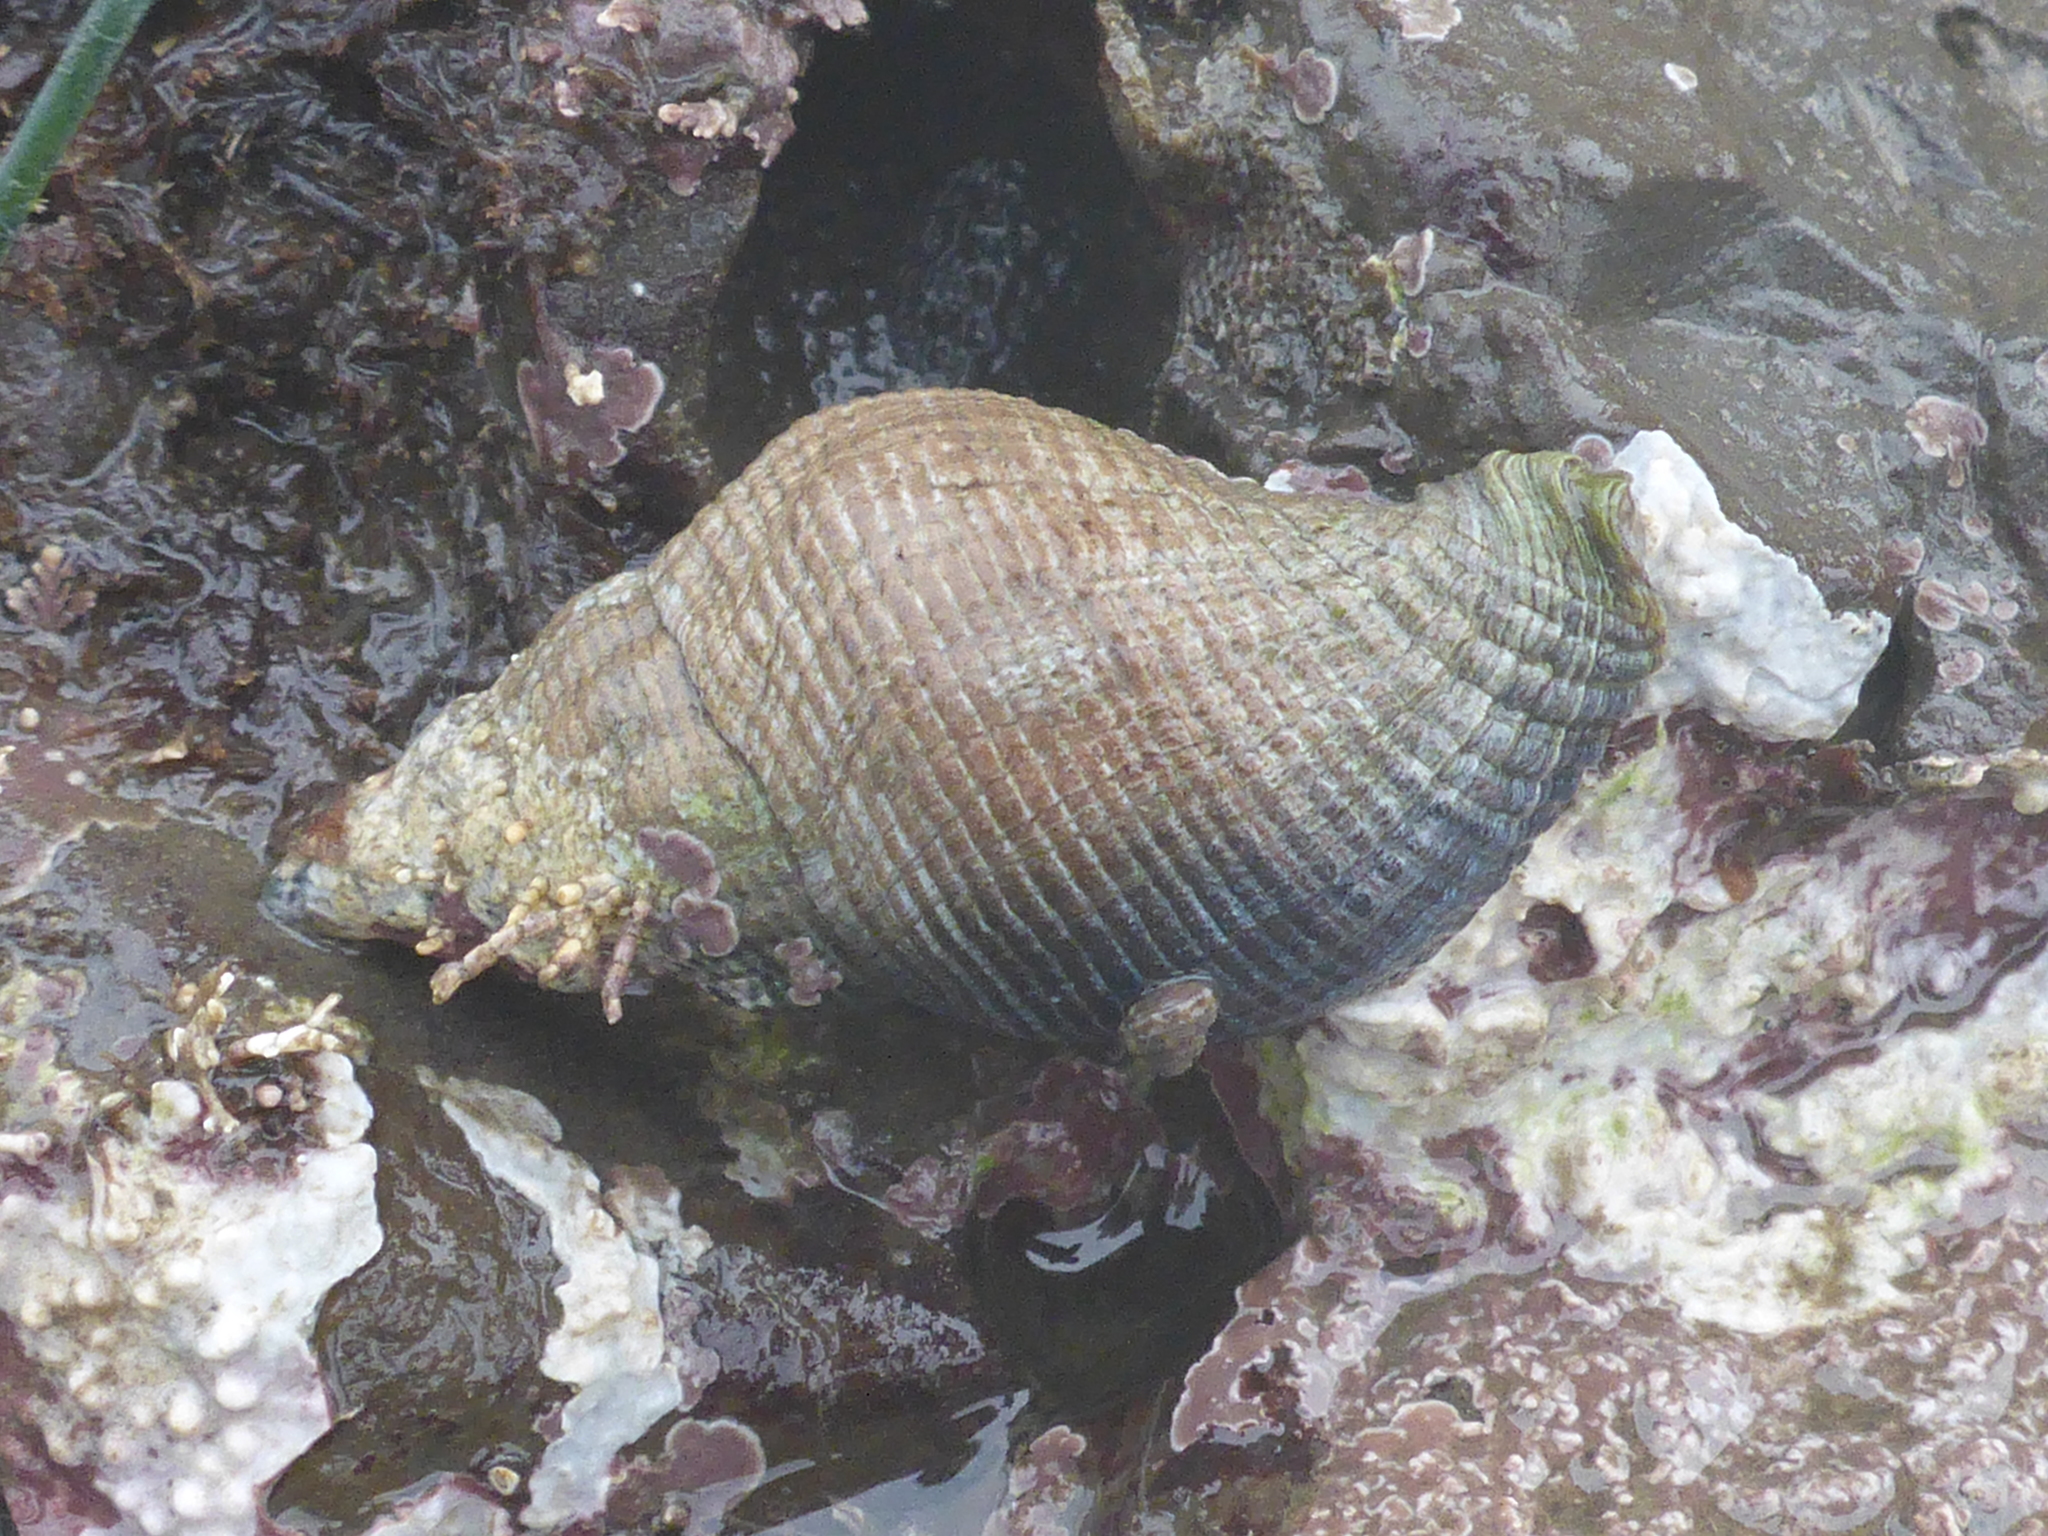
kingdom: Animalia
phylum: Mollusca
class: Gastropoda
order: Neogastropoda
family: Tudiclidae
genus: Lirabuccinum
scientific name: Lirabuccinum dirum
